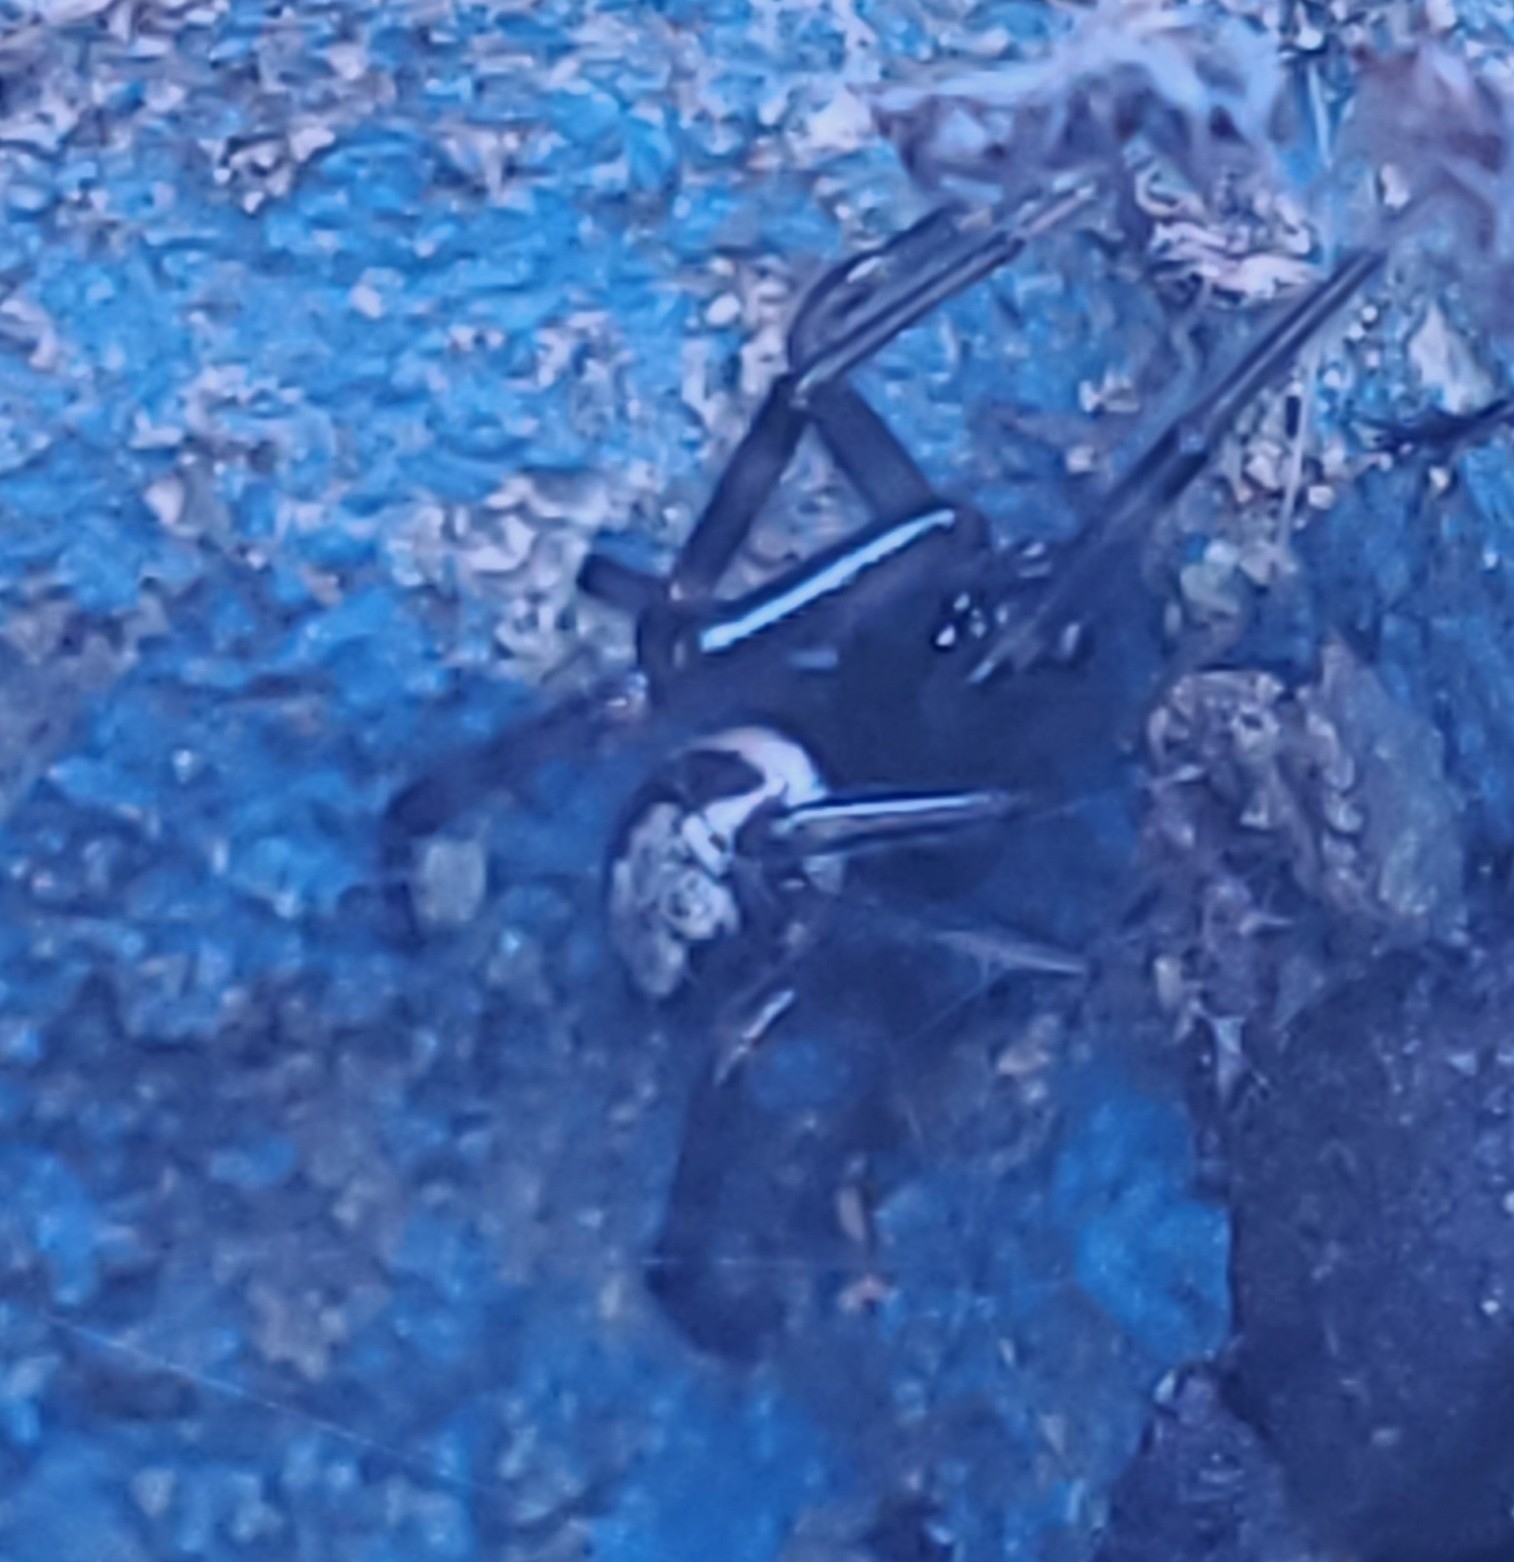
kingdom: Animalia
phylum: Arthropoda
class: Arachnida
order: Araneae
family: Theridiidae
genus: Steatoda
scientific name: Steatoda nobilis
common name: Cobweb weaver
